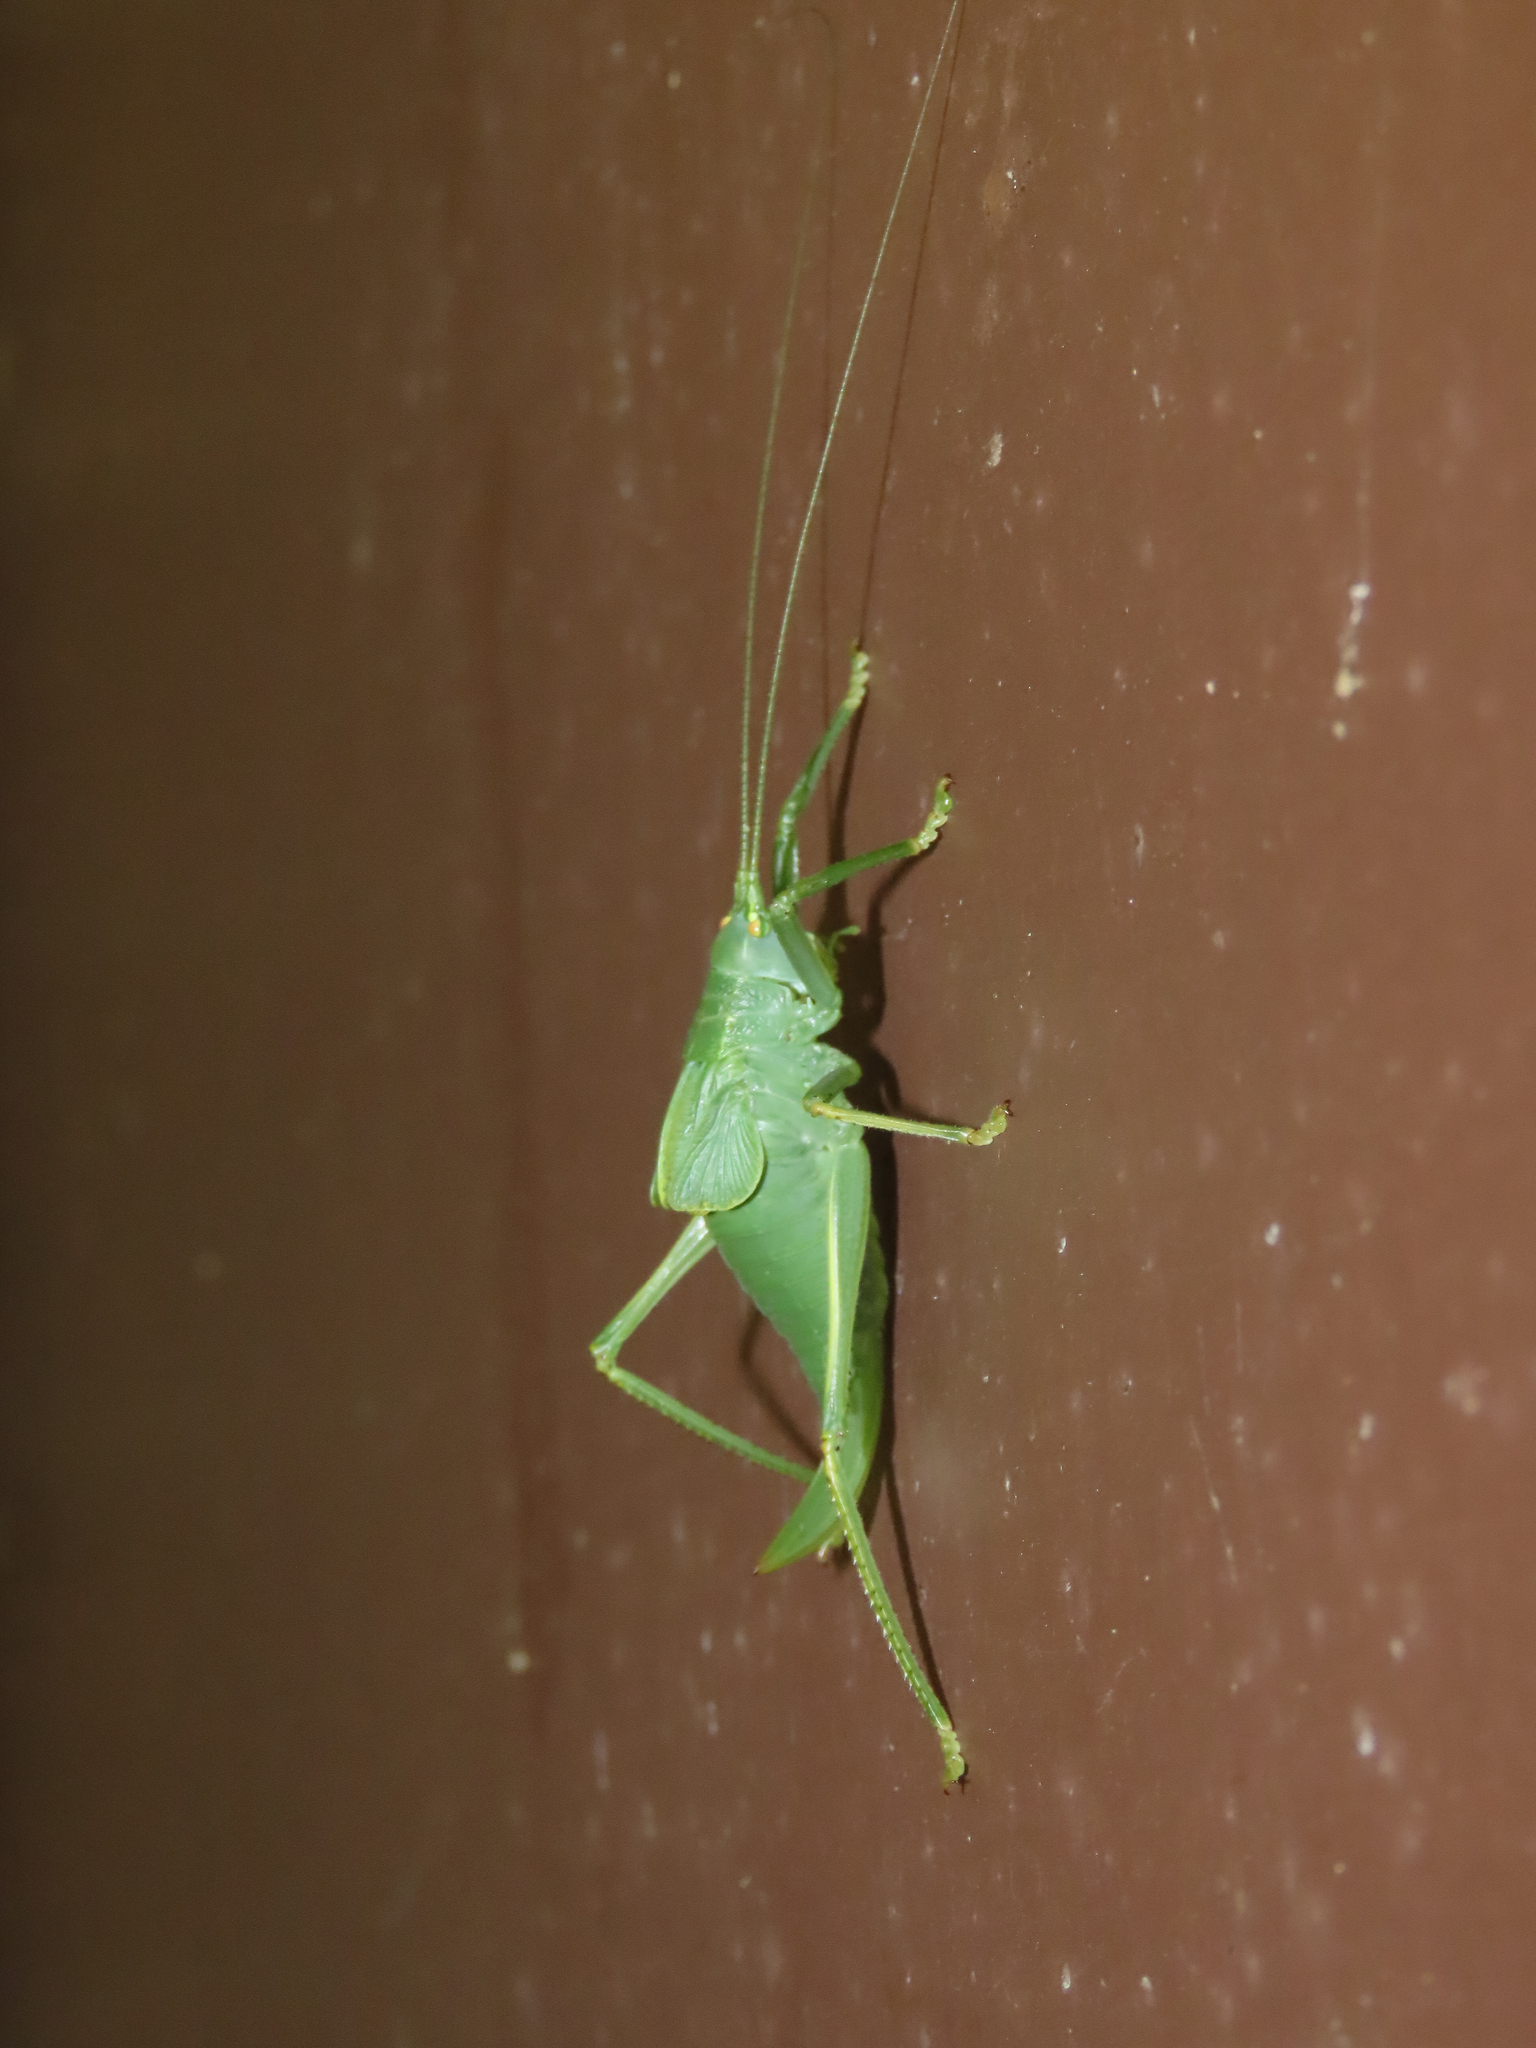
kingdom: Animalia
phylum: Arthropoda
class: Insecta
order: Orthoptera
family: Tettigoniidae
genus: Pterophylla
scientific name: Pterophylla camellifolia
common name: Common true katydid
